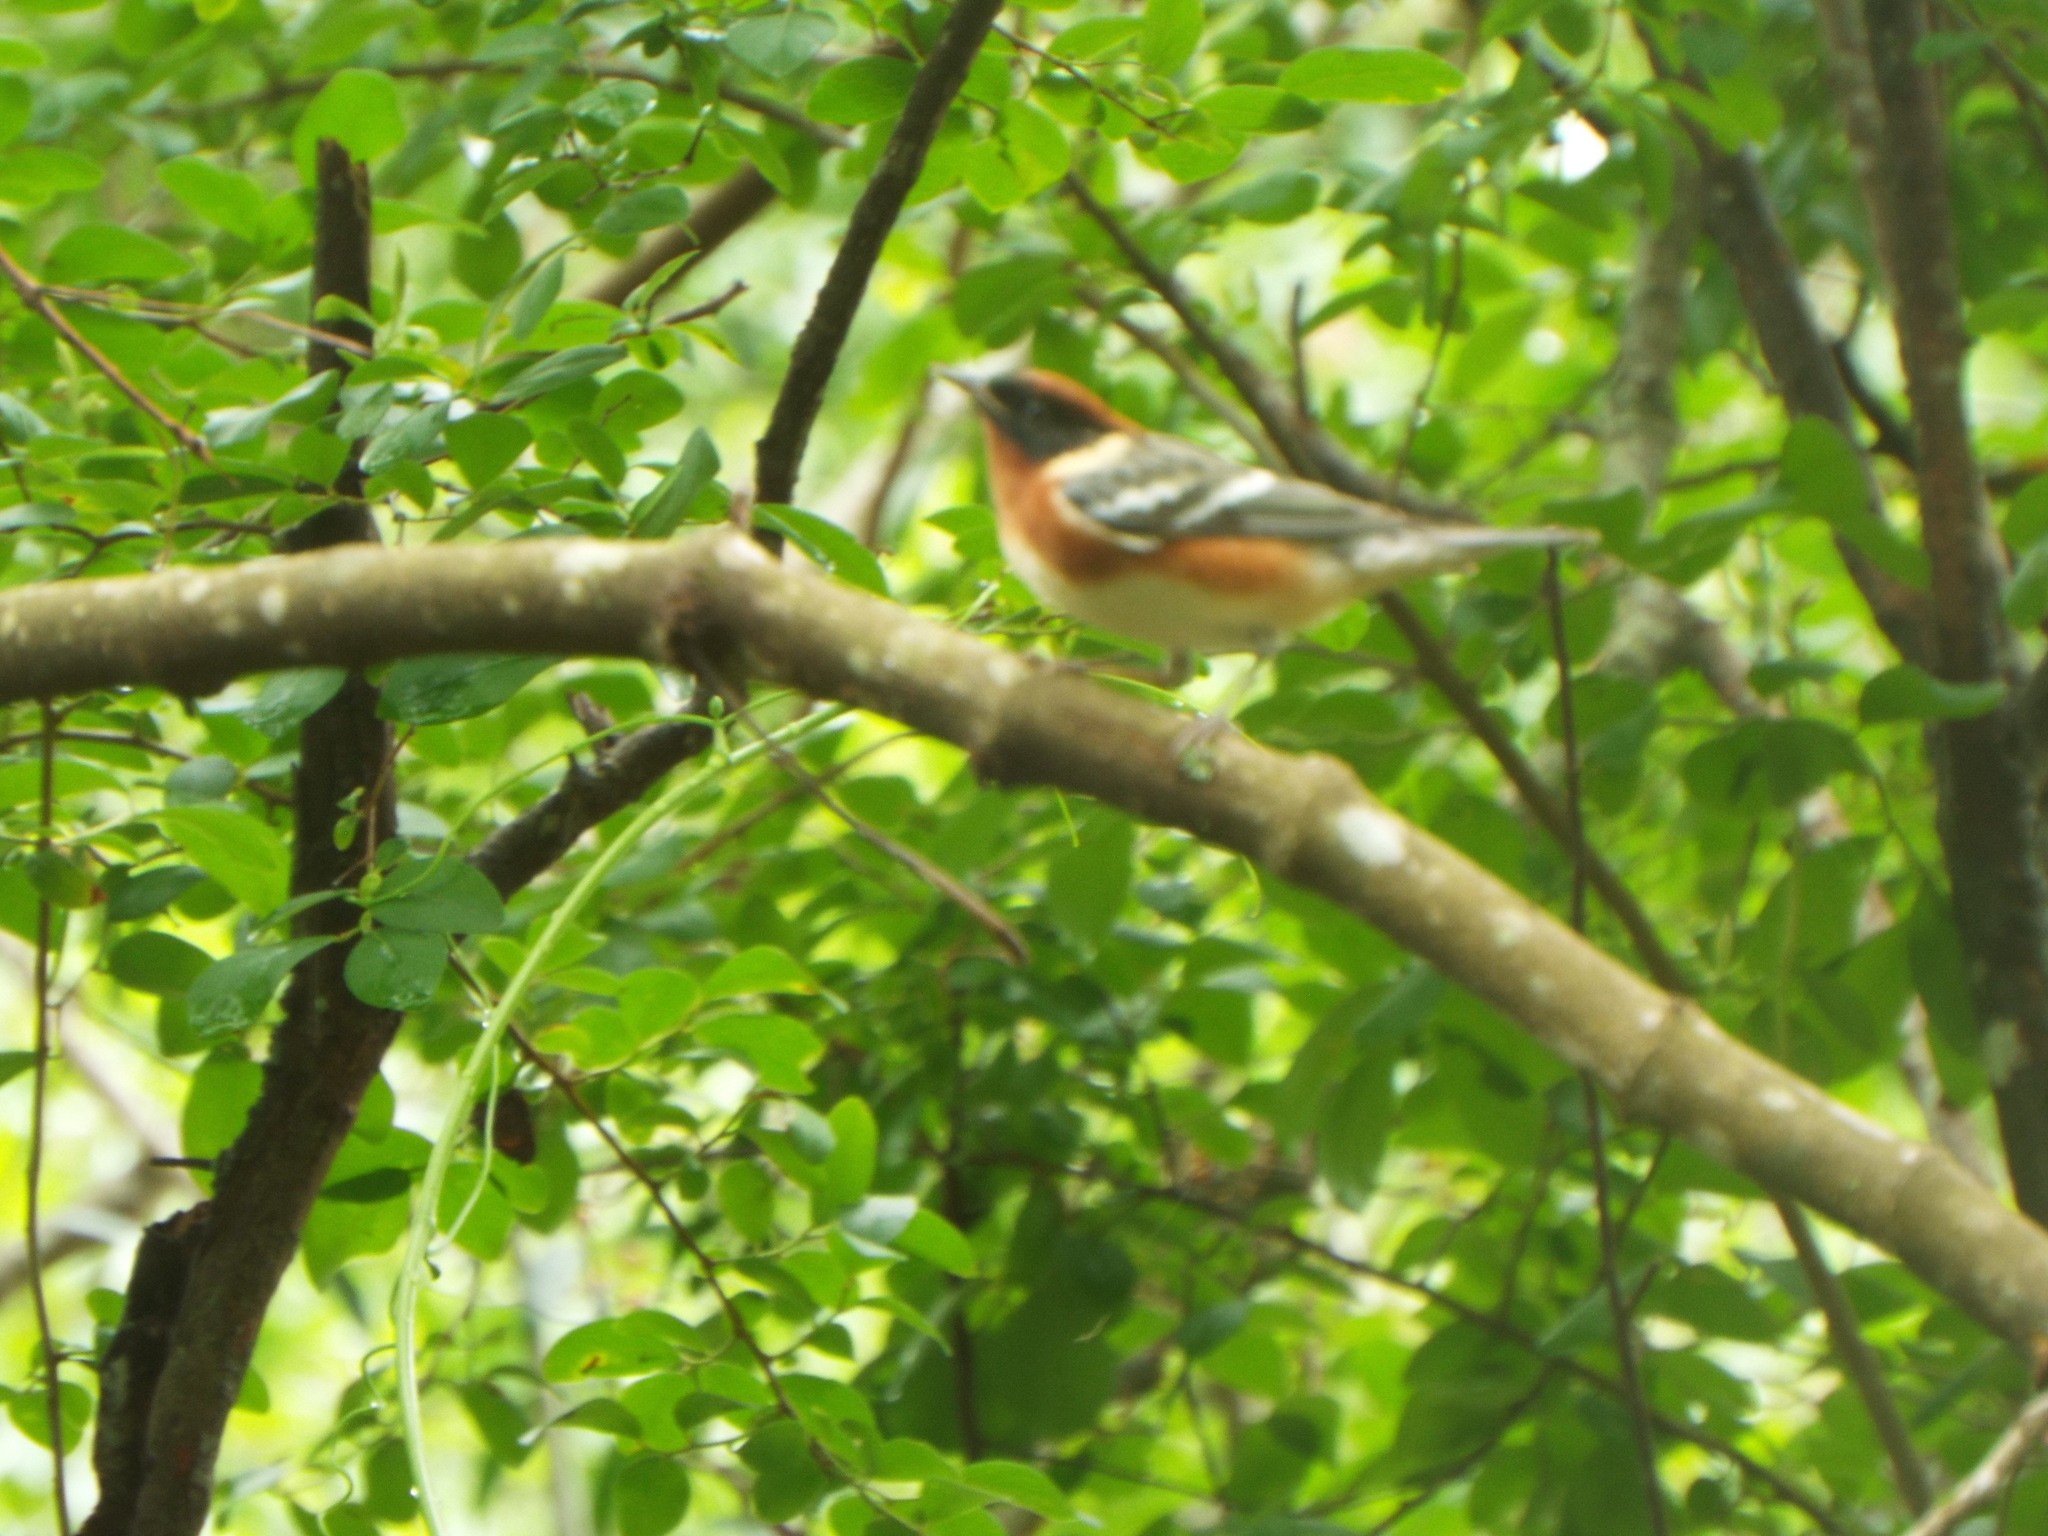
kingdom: Animalia
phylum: Chordata
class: Aves
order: Passeriformes
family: Parulidae
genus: Setophaga
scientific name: Setophaga castanea
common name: Bay-breasted warbler
